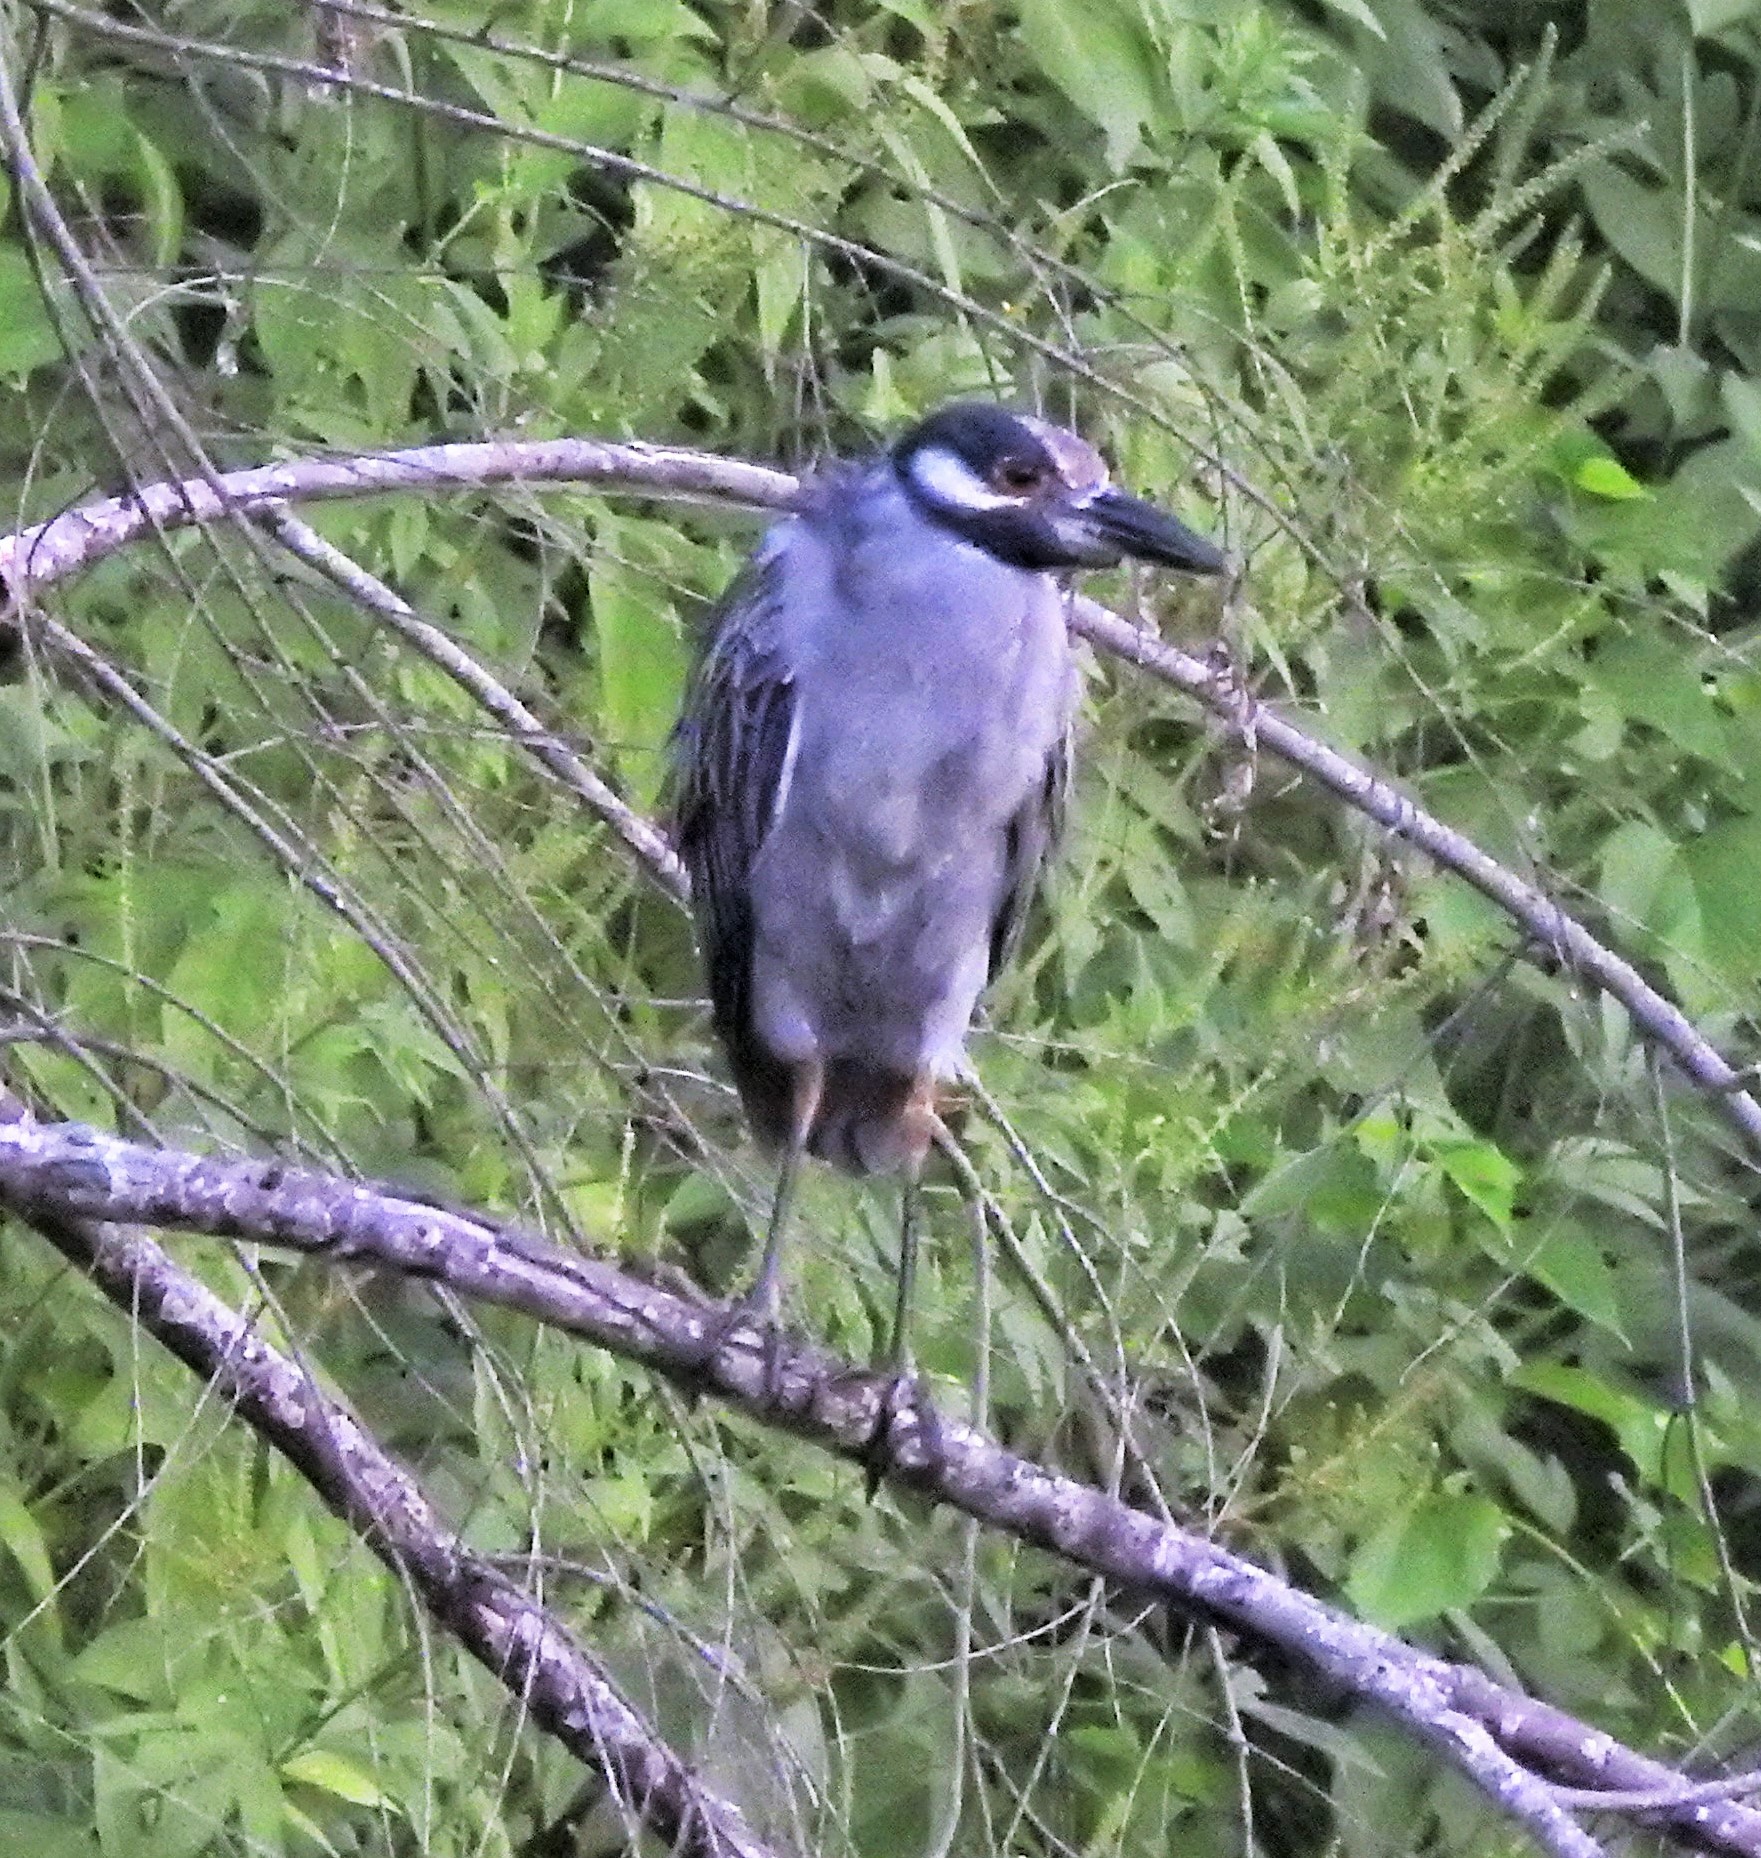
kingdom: Animalia
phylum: Chordata
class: Aves
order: Pelecaniformes
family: Ardeidae
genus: Nyctanassa
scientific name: Nyctanassa violacea
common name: Yellow-crowned night heron
